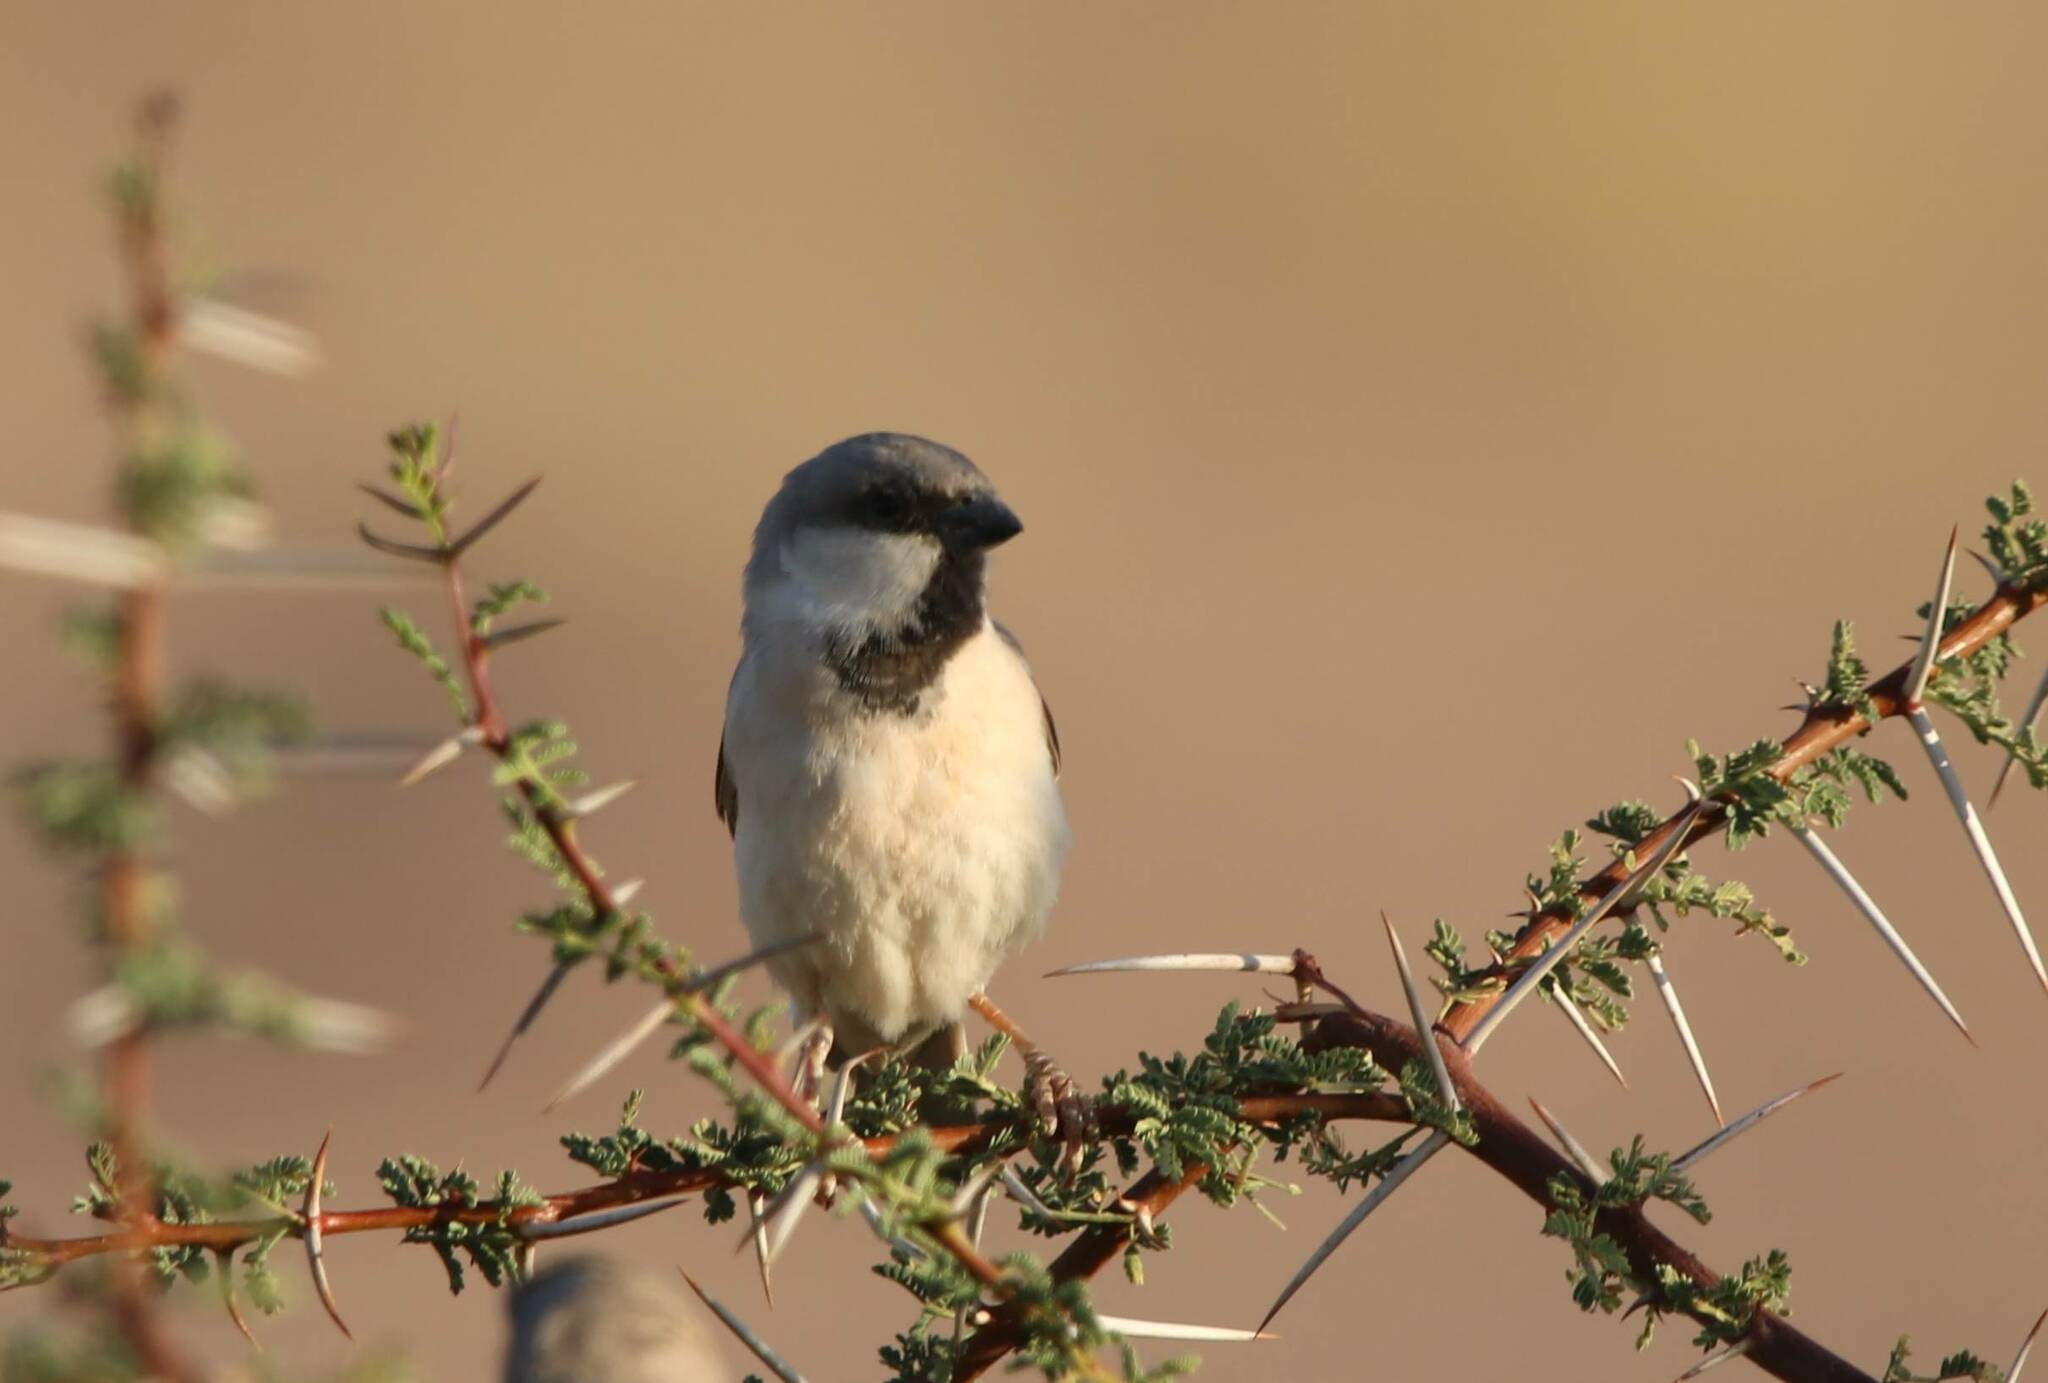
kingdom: Animalia
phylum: Chordata
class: Aves
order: Passeriformes
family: Passeridae
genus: Passer
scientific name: Passer simplex
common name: Desert sparrow
